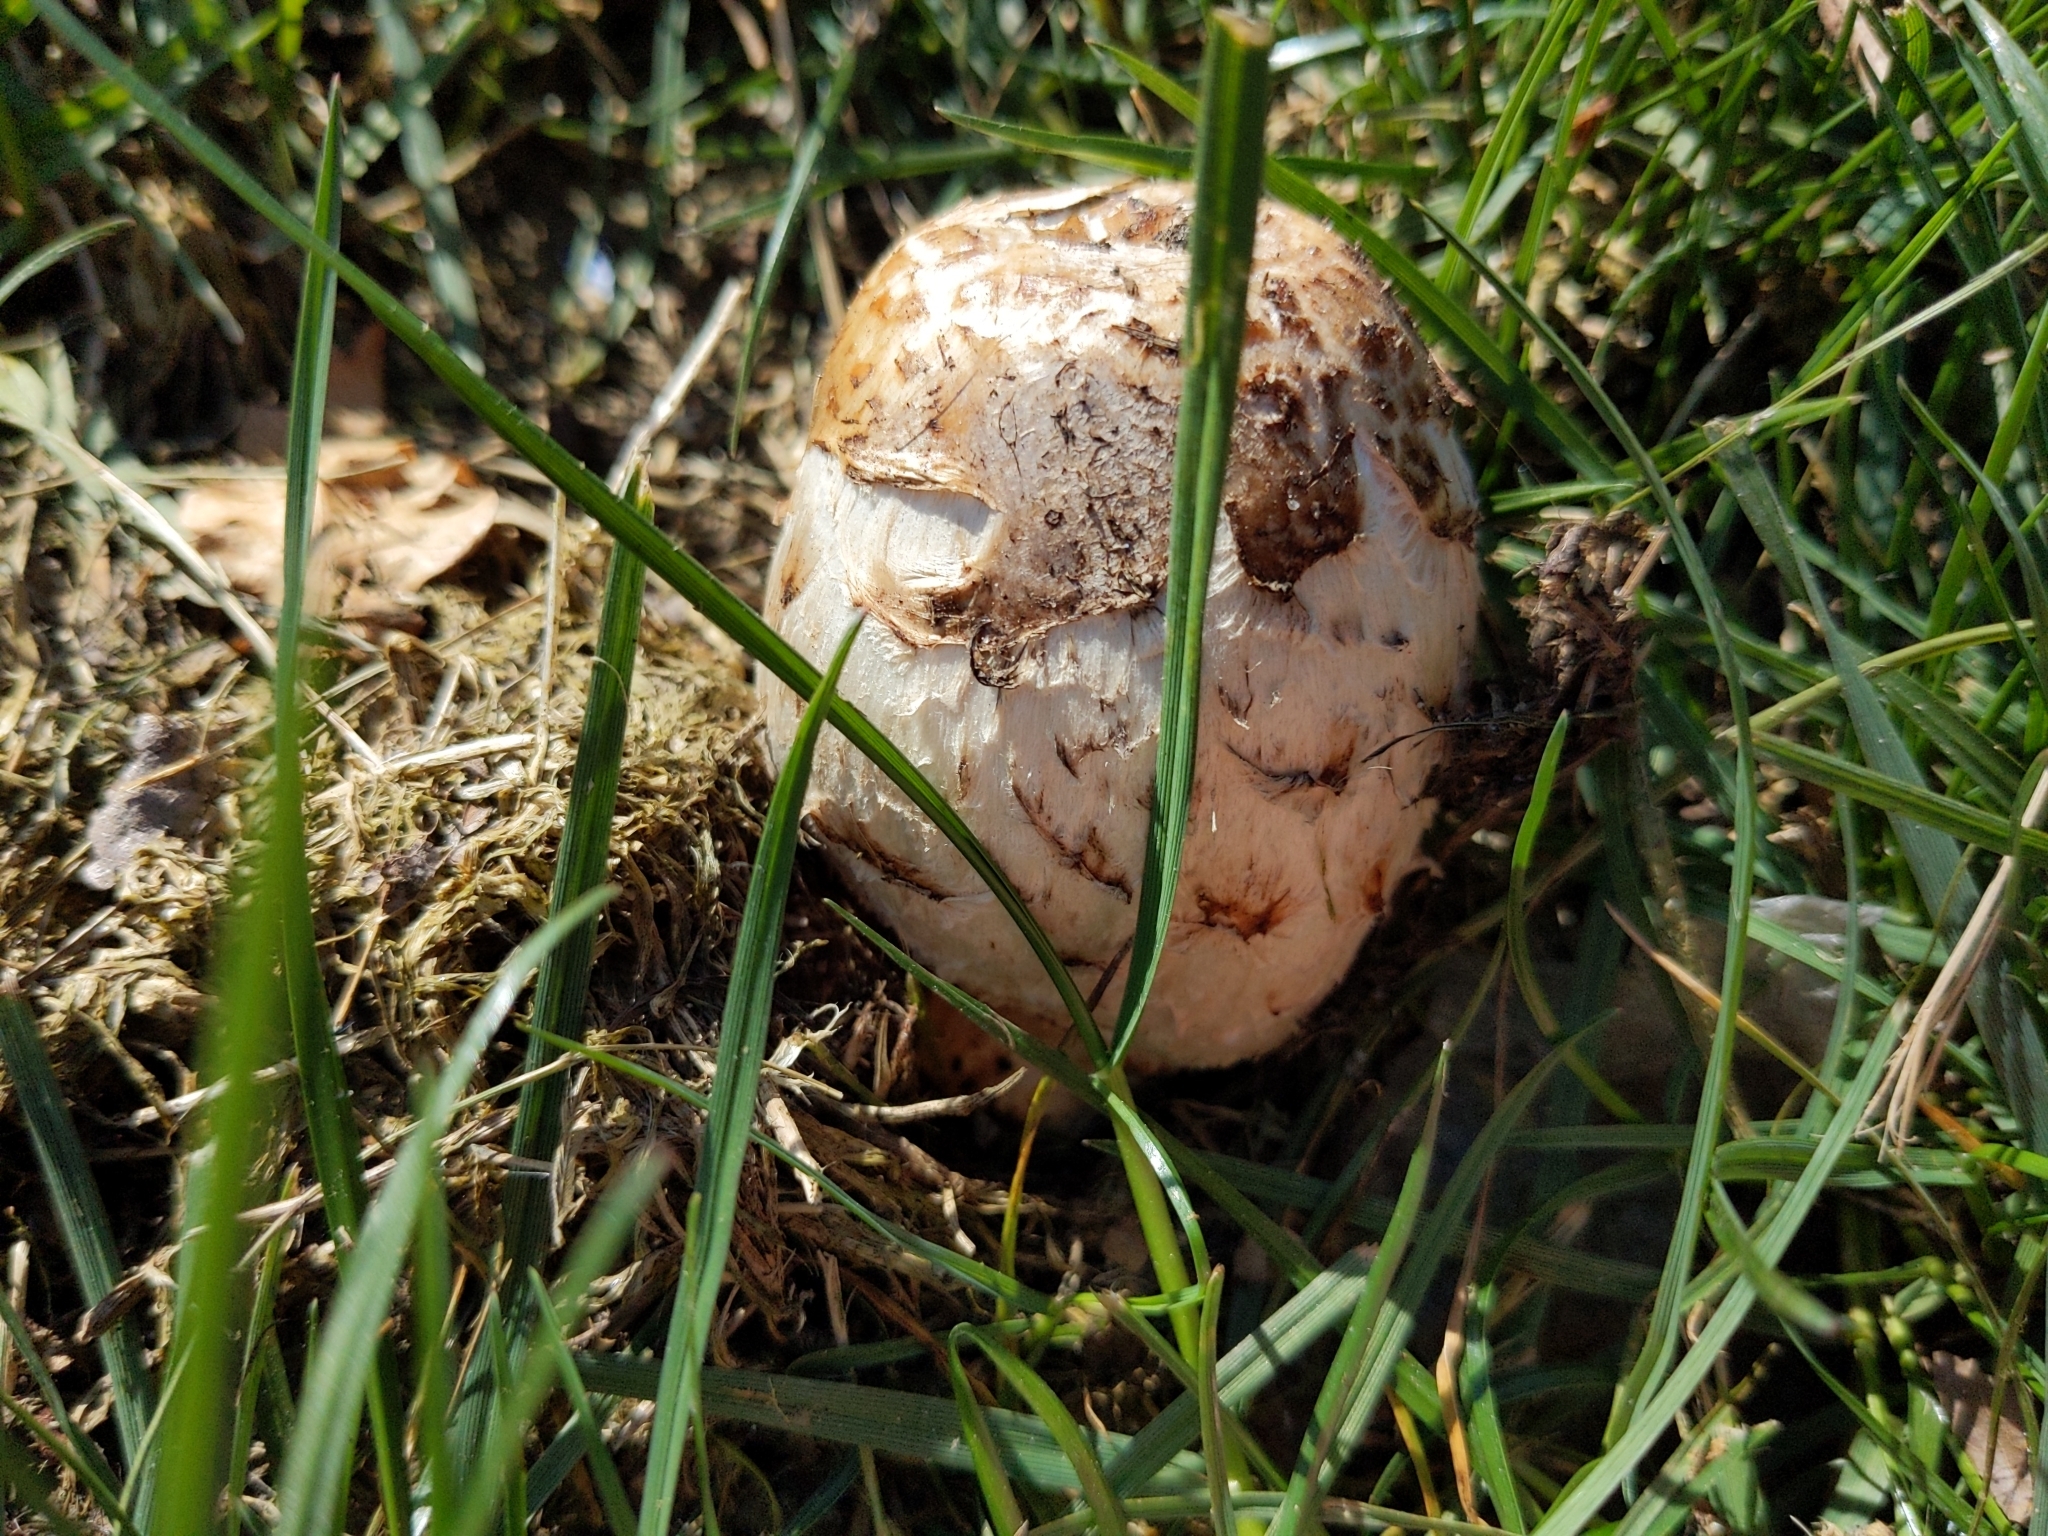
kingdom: Fungi
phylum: Basidiomycota
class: Agaricomycetes
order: Agaricales
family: Agaricaceae
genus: Coprinus
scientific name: Coprinus comatus
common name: Lawyer's wig
